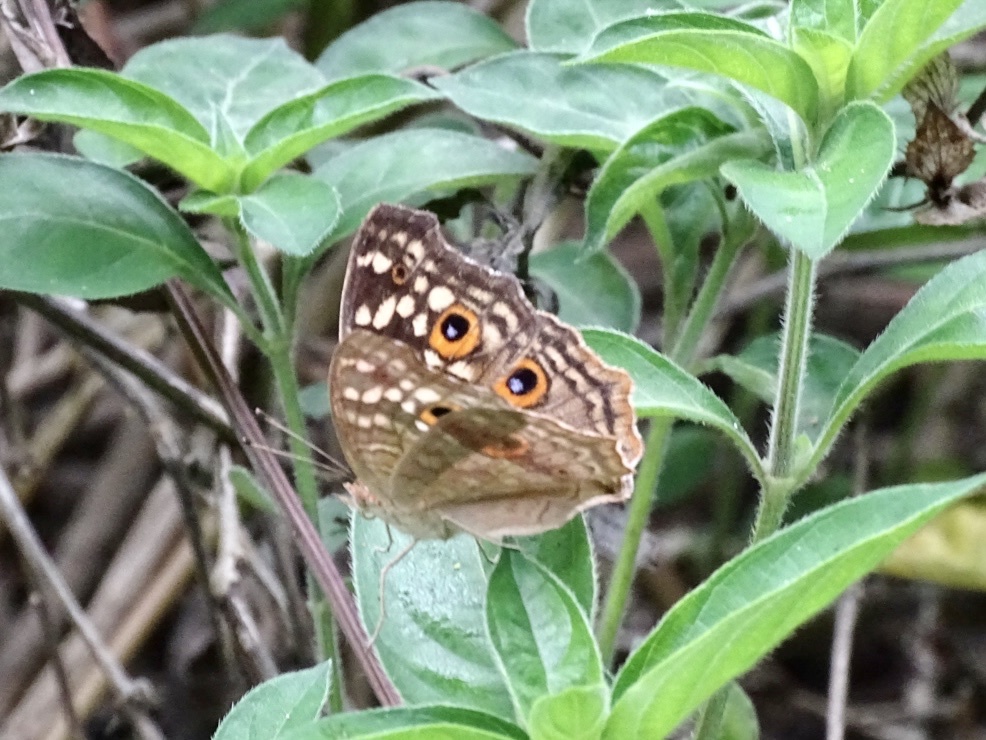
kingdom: Animalia
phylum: Arthropoda
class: Insecta
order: Lepidoptera
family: Nymphalidae
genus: Junonia
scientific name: Junonia lemonias
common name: Lemon pansy
